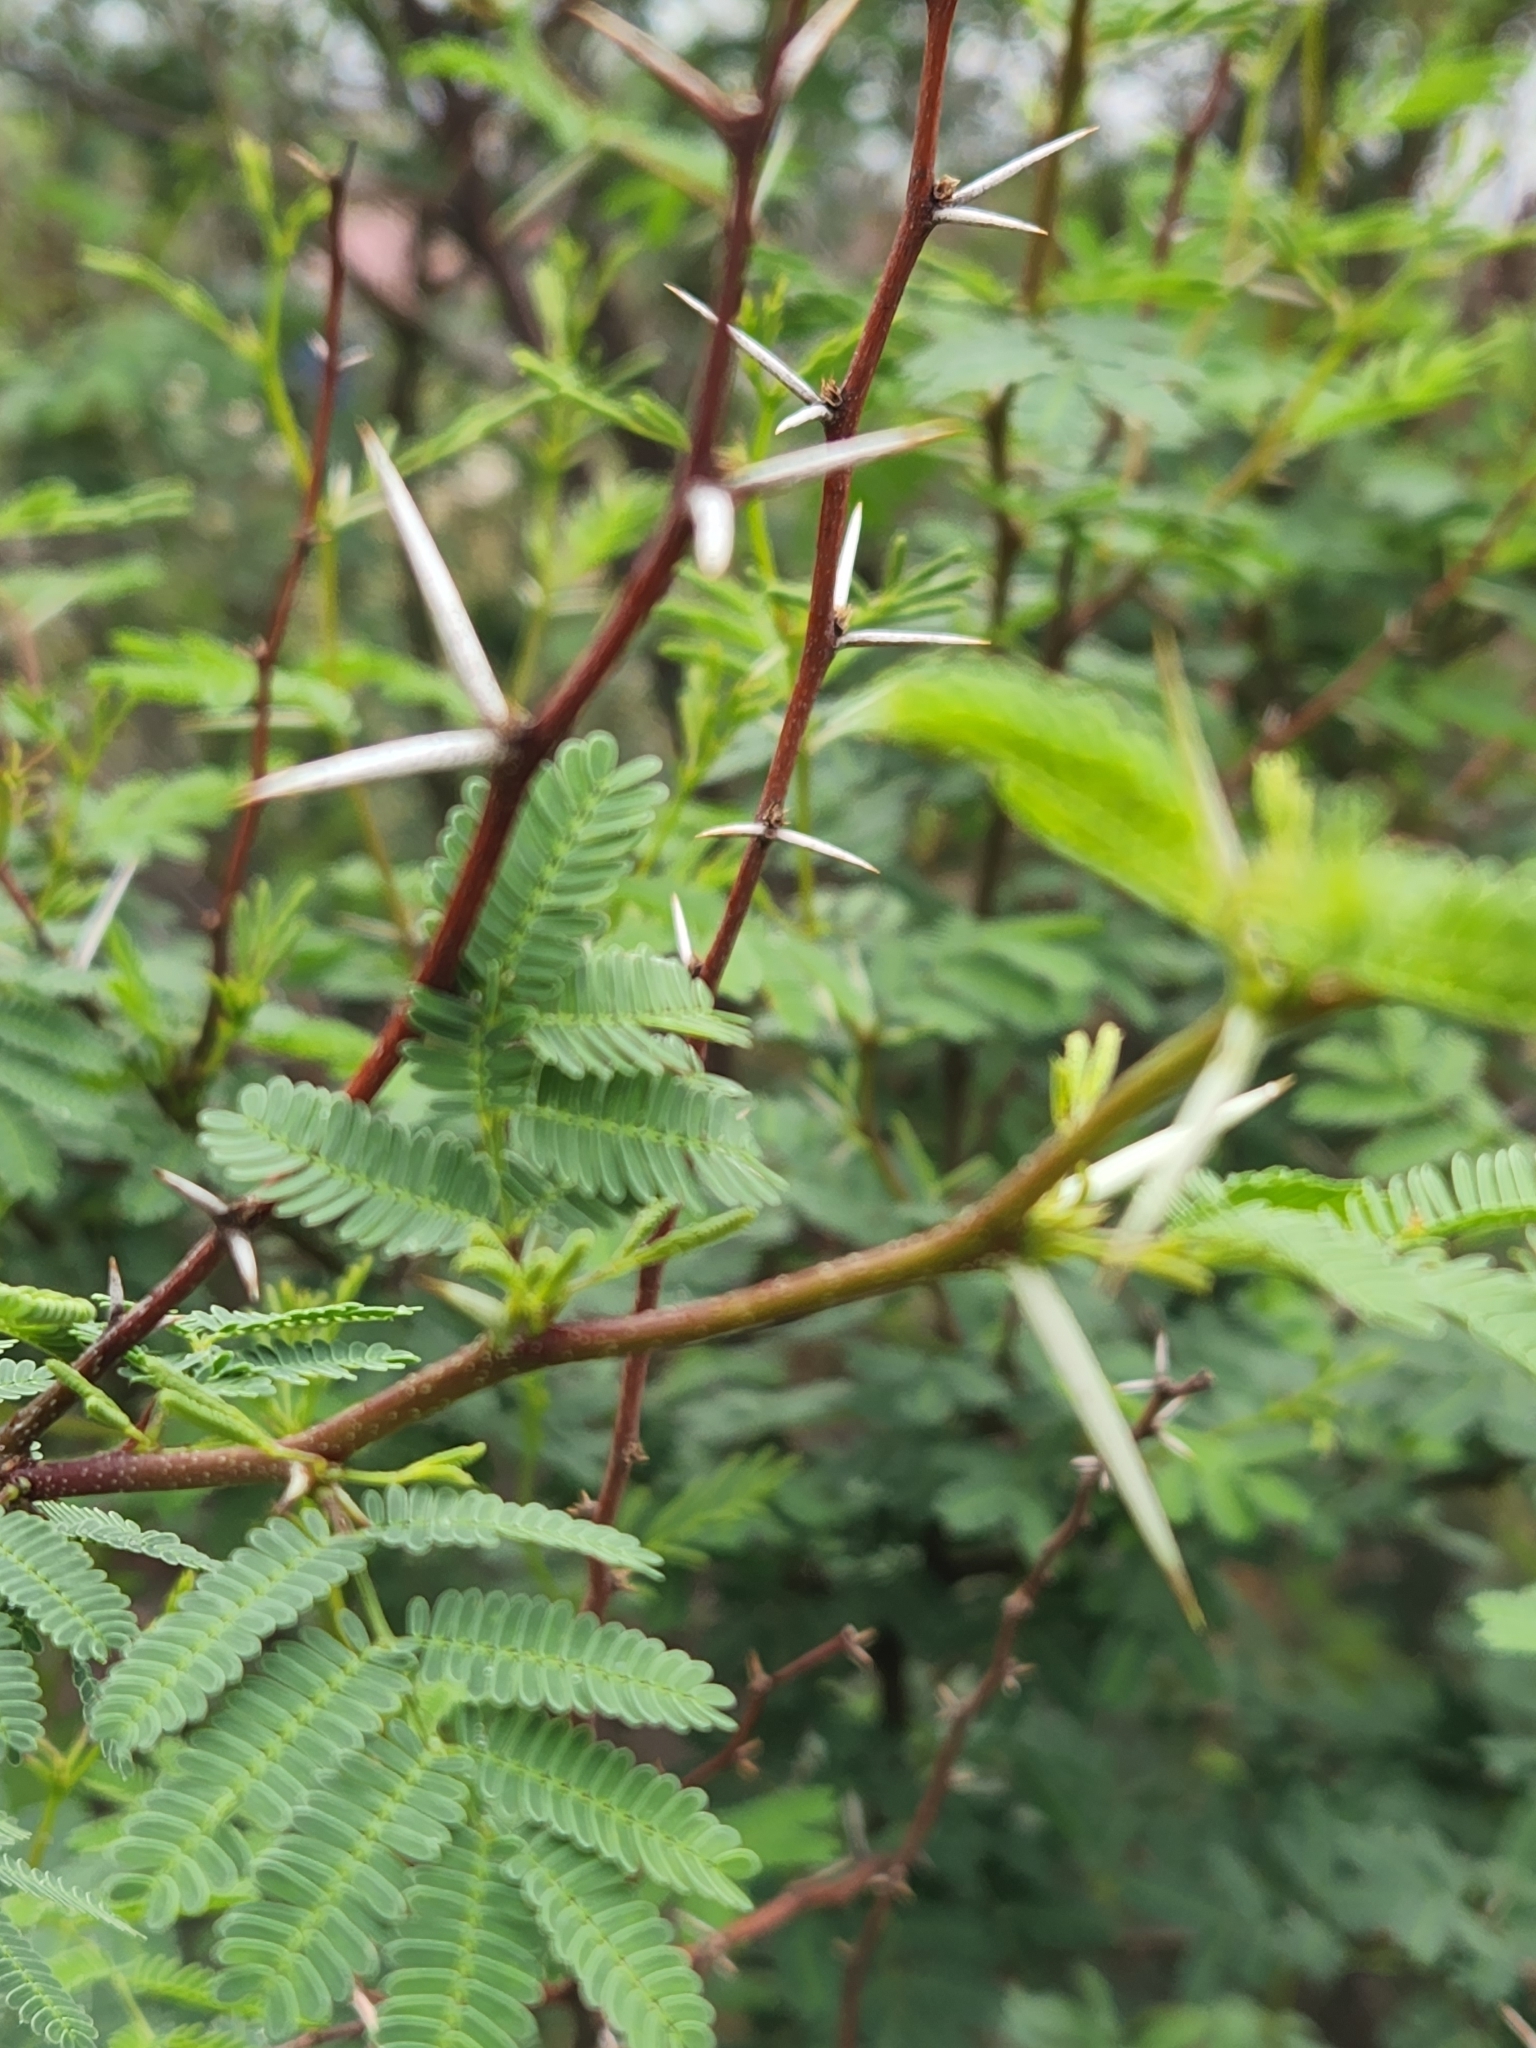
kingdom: Plantae
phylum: Tracheophyta
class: Magnoliopsida
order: Fabales
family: Fabaceae
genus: Vachellia
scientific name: Vachellia farnesiana
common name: Sweet acacia
